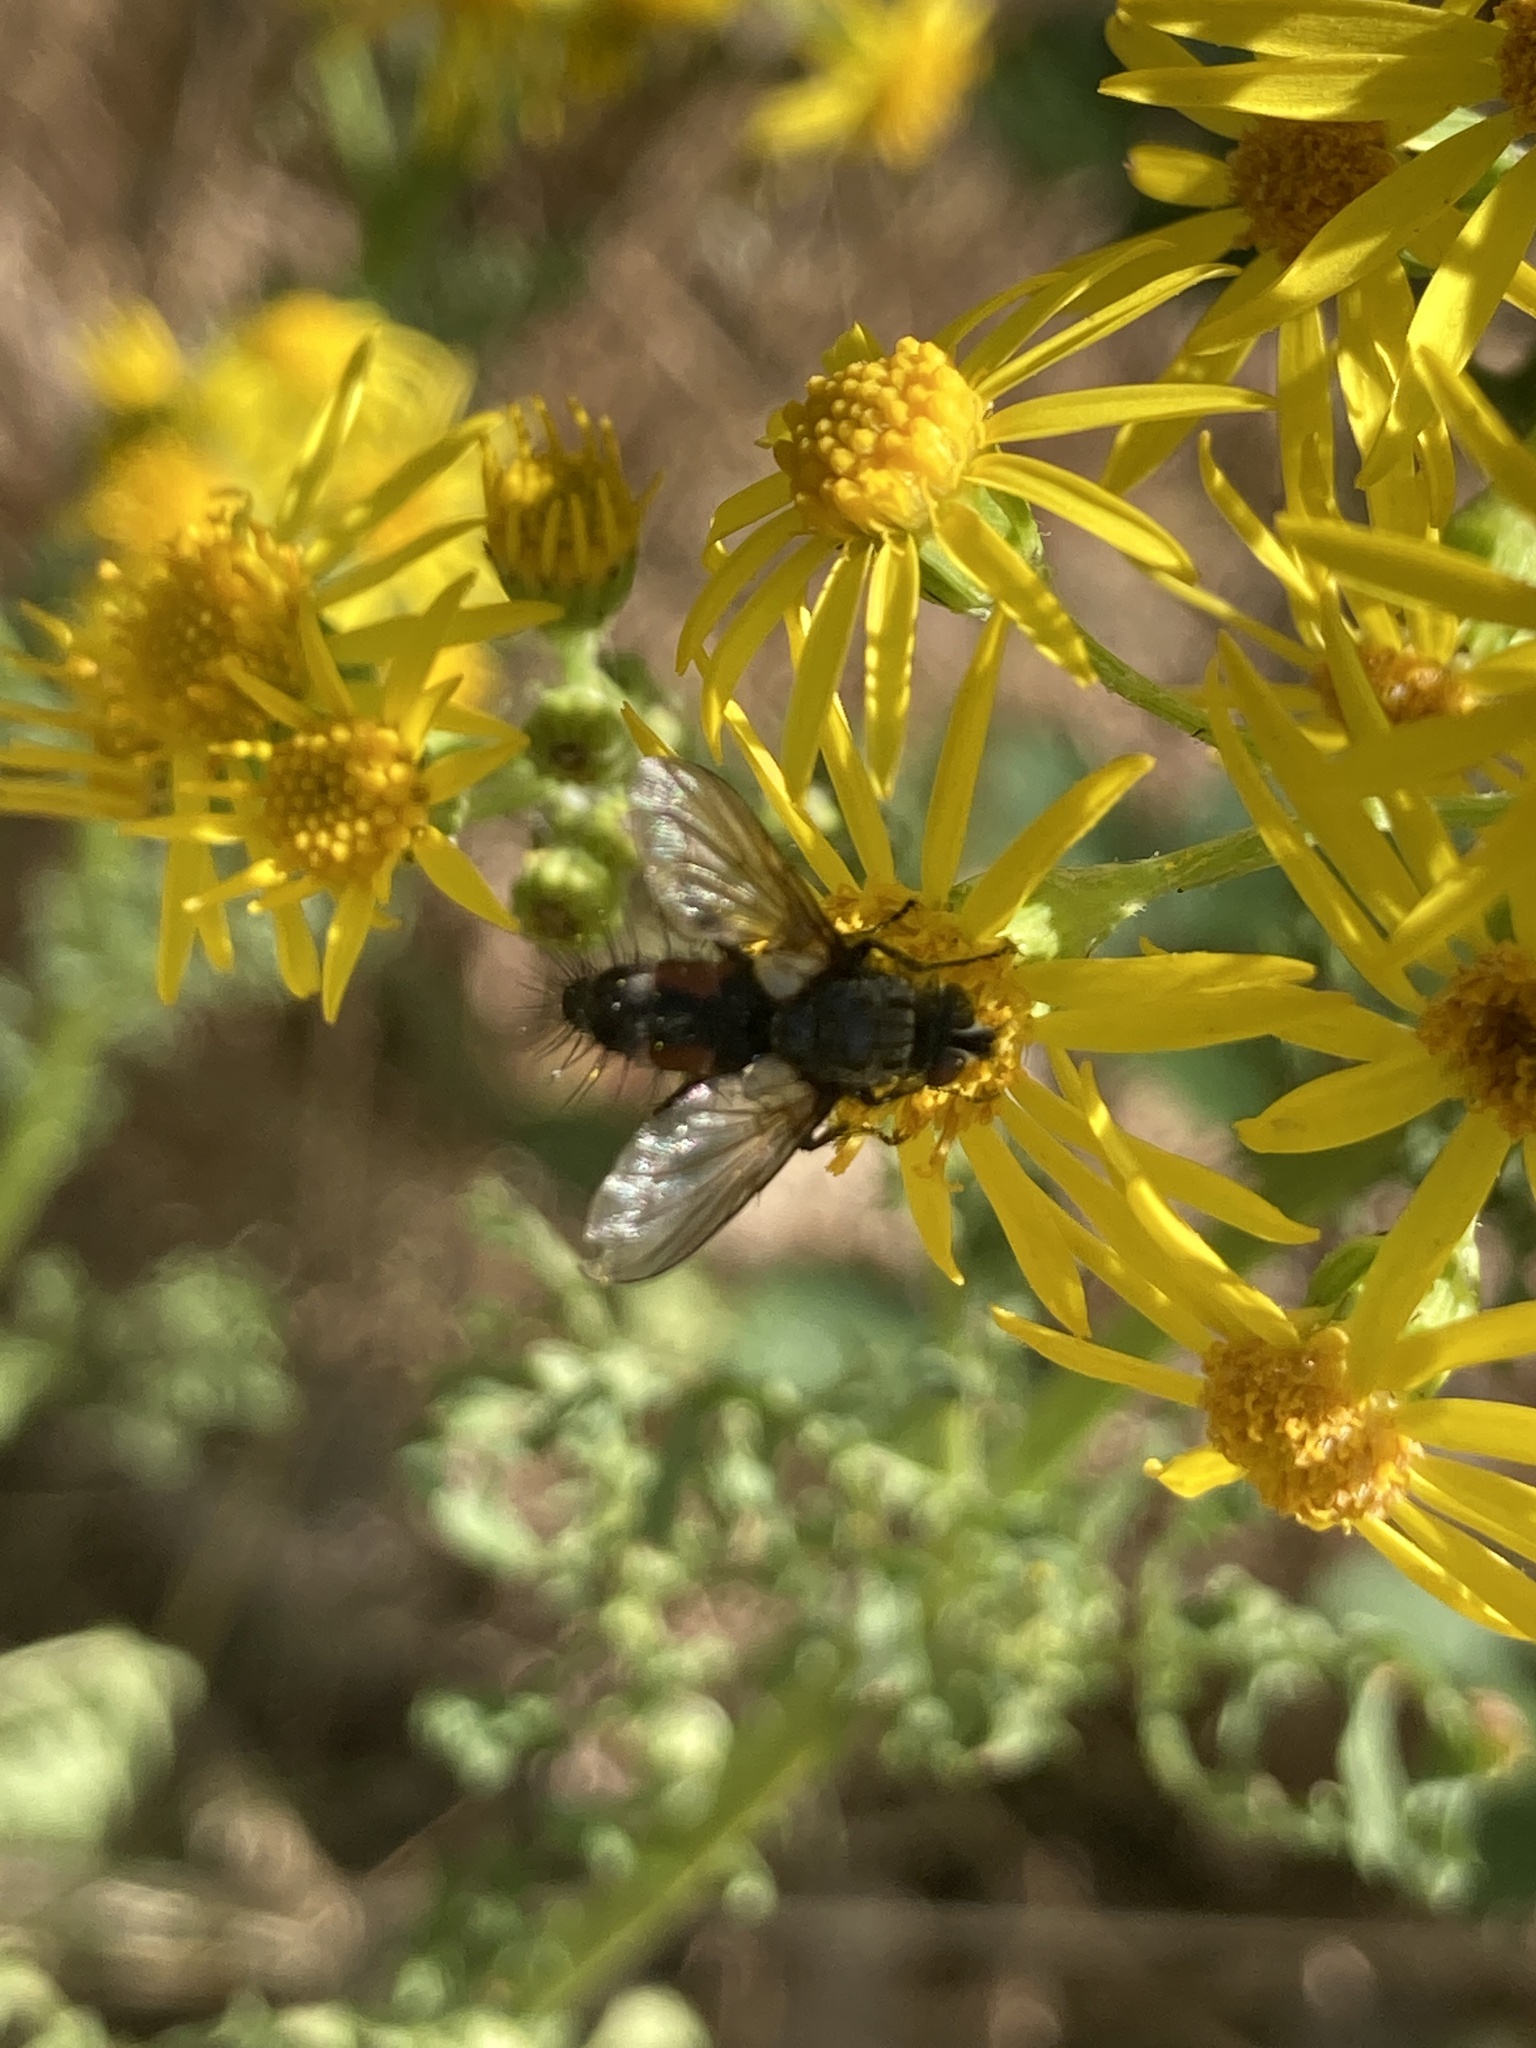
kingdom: Animalia
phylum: Arthropoda
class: Insecta
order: Diptera
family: Tachinidae
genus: Eriothrix
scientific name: Eriothrix rufomaculatus
